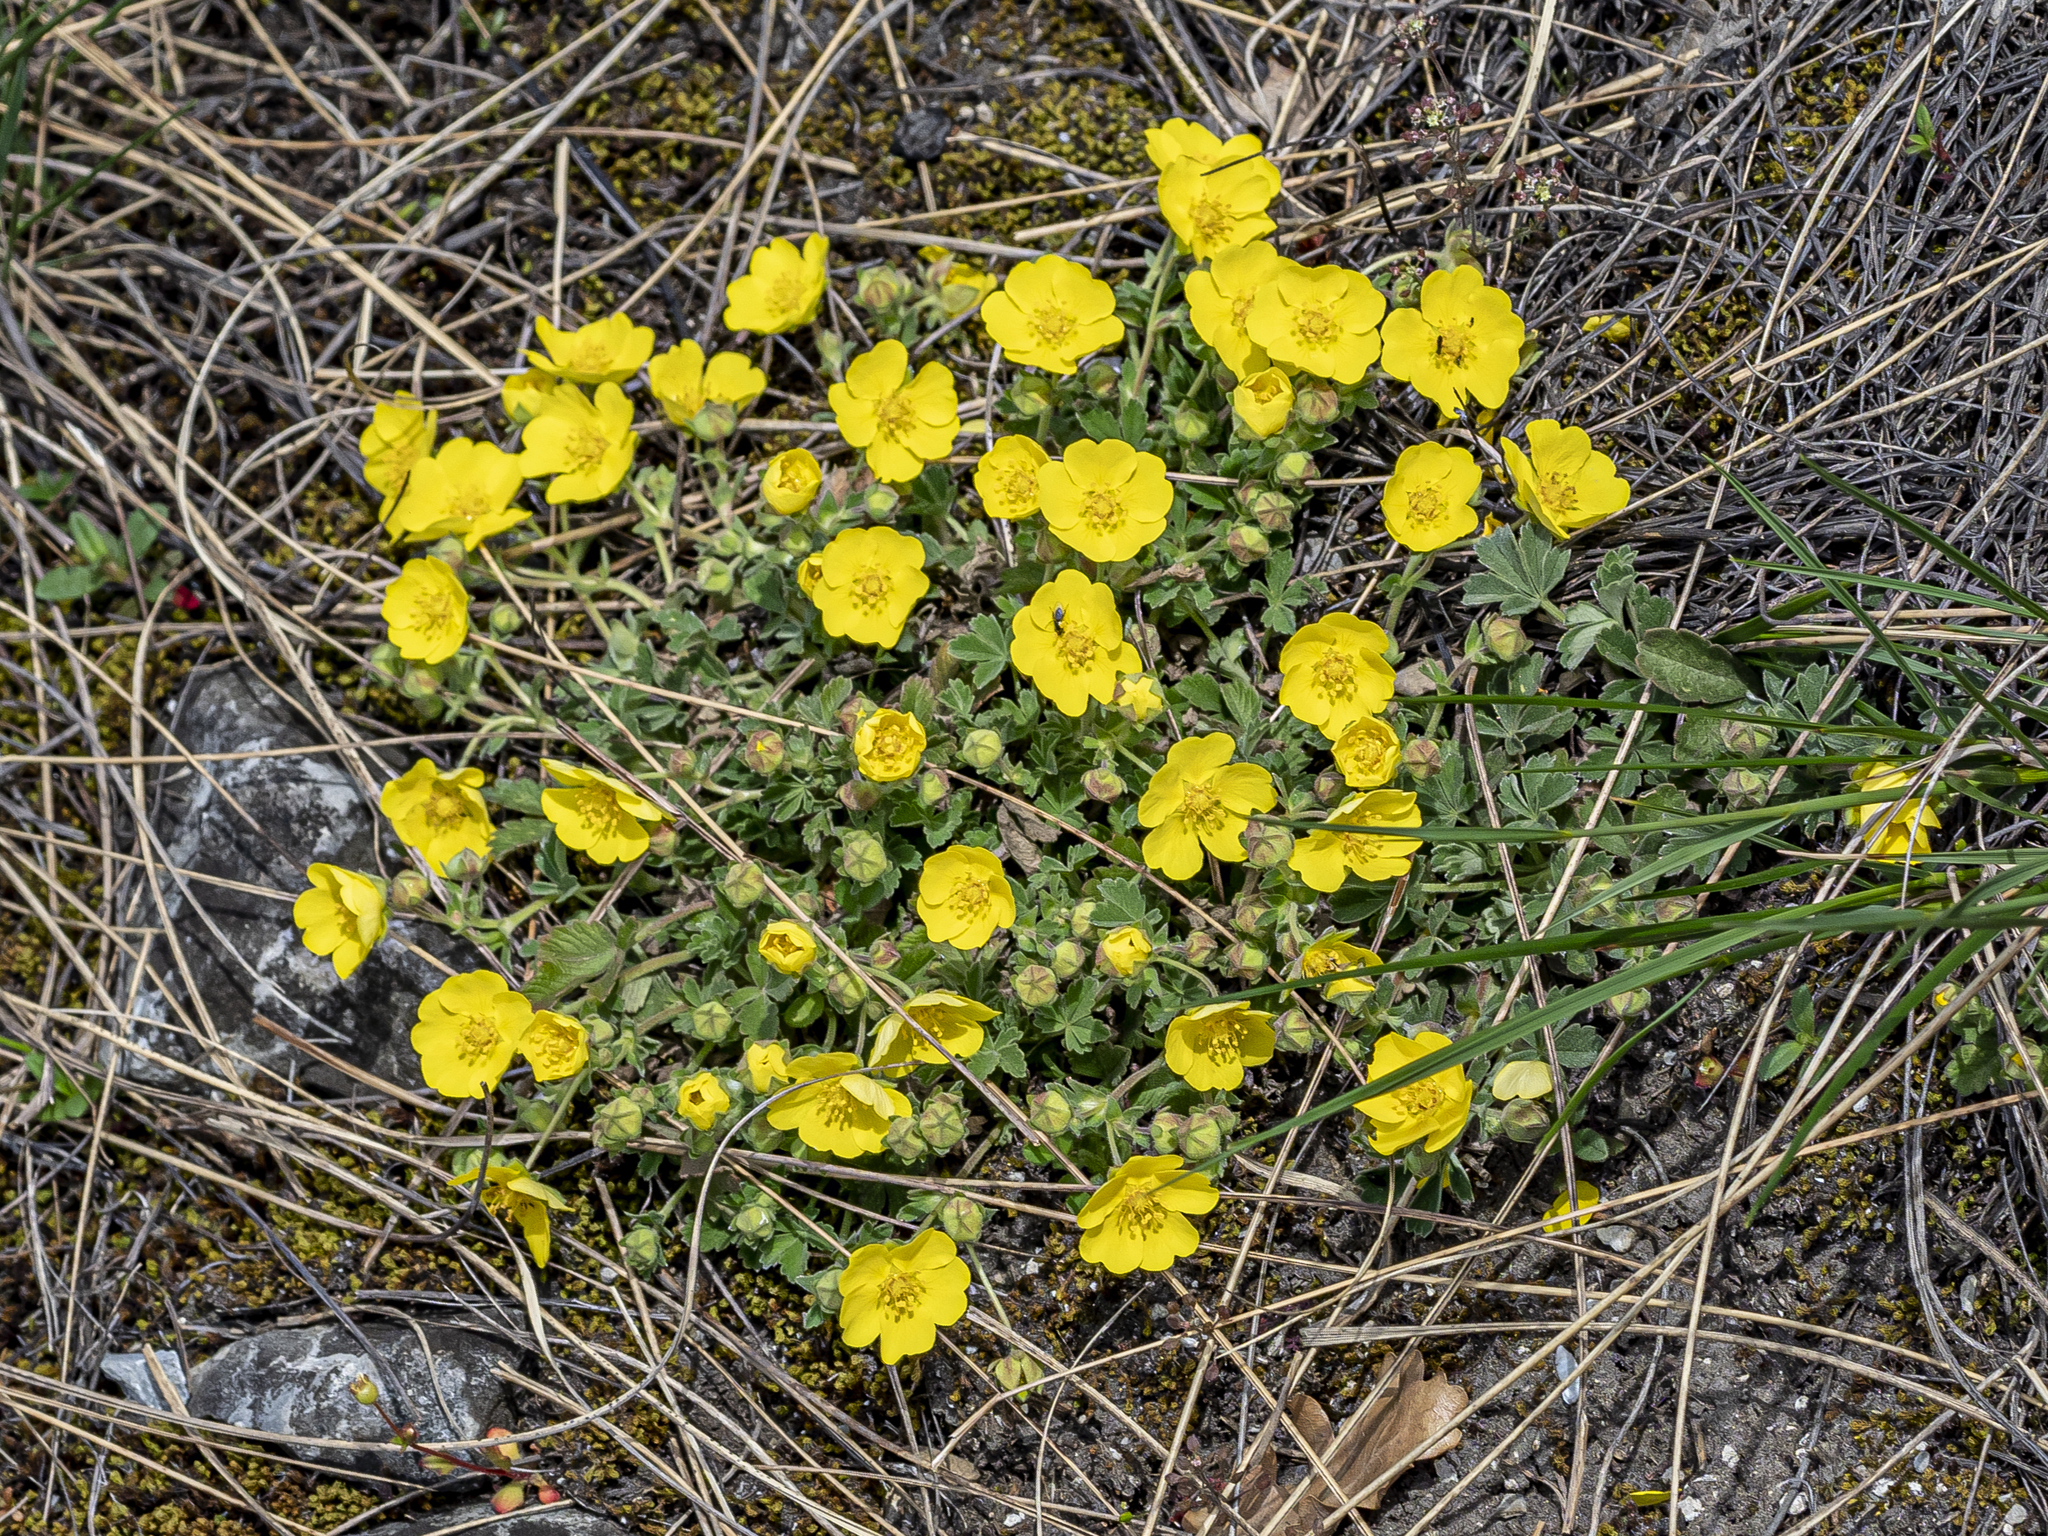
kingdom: Plantae
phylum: Tracheophyta
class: Magnoliopsida
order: Rosales
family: Rosaceae
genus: Potentilla
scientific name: Potentilla incana
